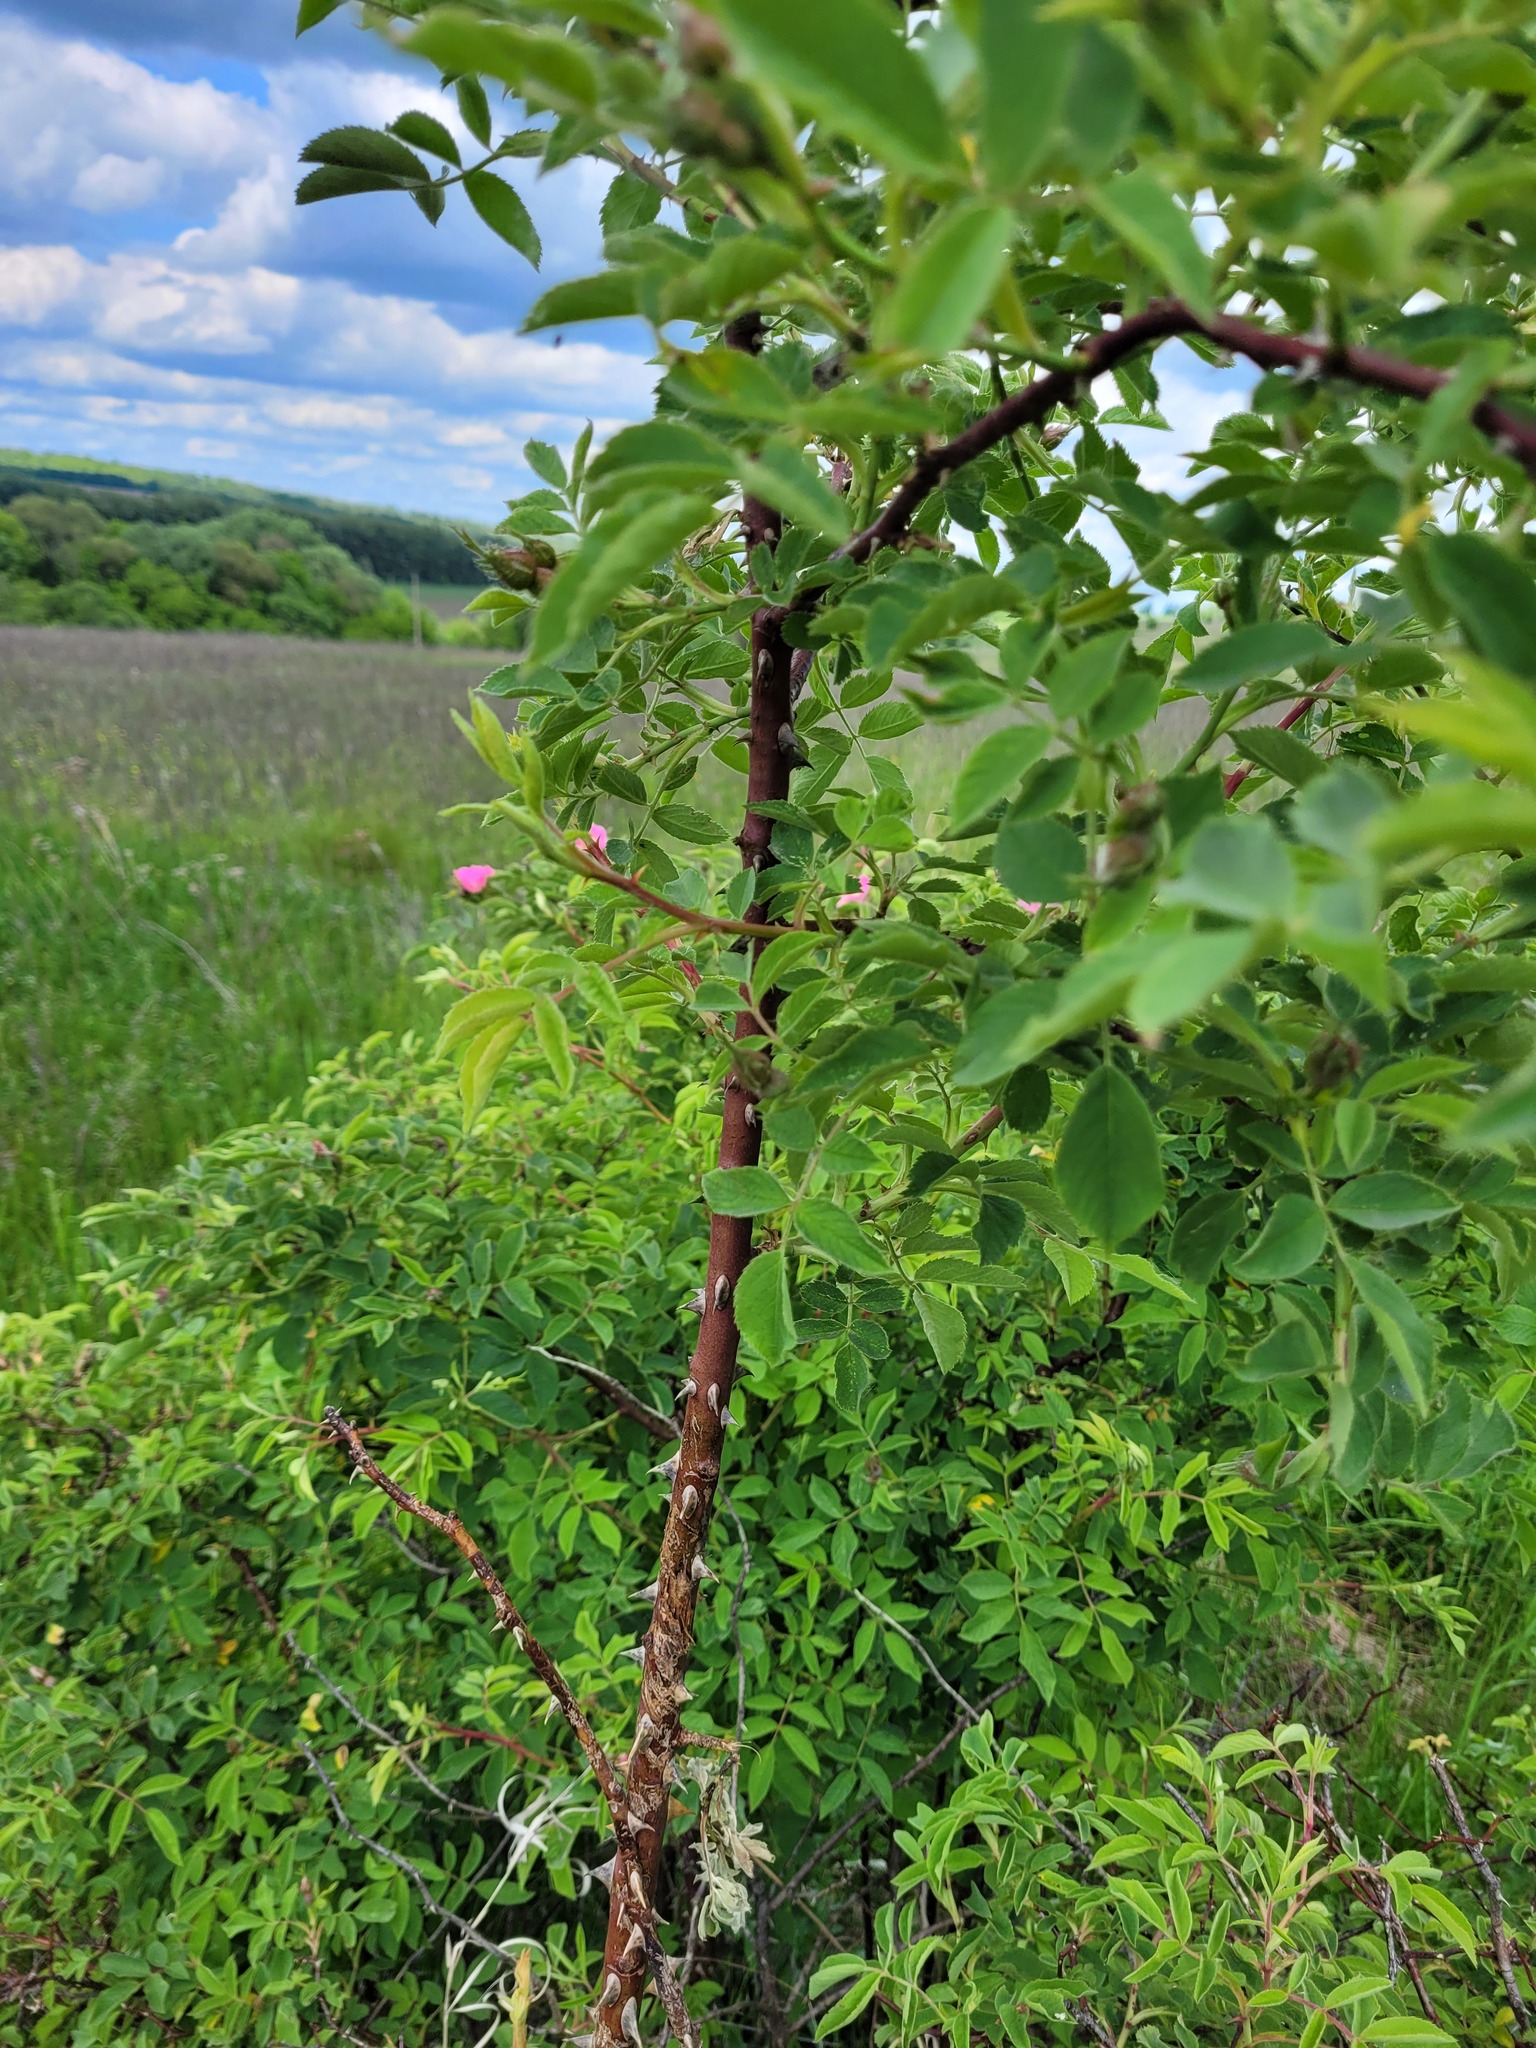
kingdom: Plantae
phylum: Tracheophyta
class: Magnoliopsida
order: Rosales
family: Rosaceae
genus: Rosa
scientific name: Rosa villosa
